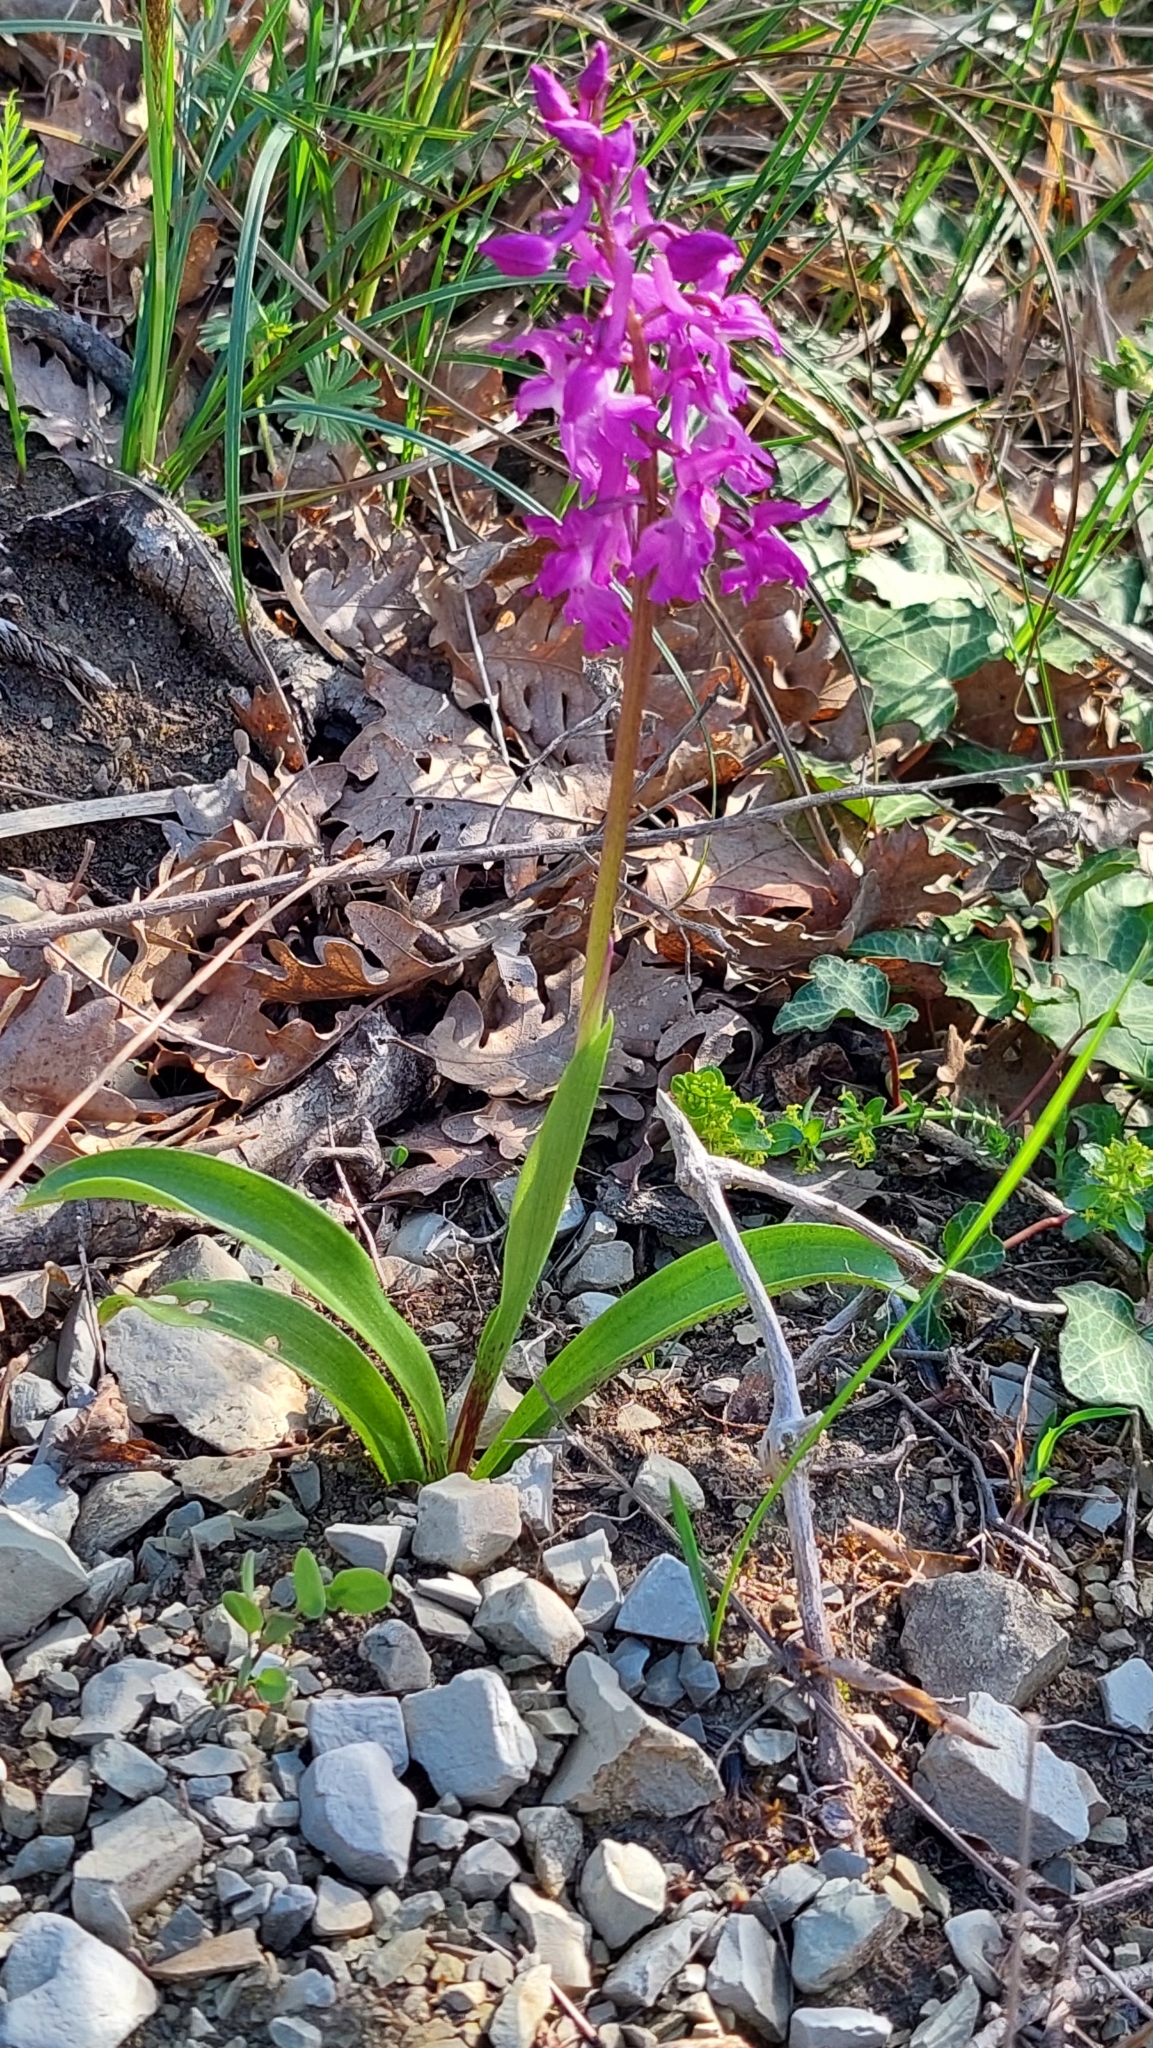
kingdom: Plantae
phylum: Tracheophyta
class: Liliopsida
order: Asparagales
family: Orchidaceae
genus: Orchis
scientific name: Orchis mascula
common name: Early-purple orchid
